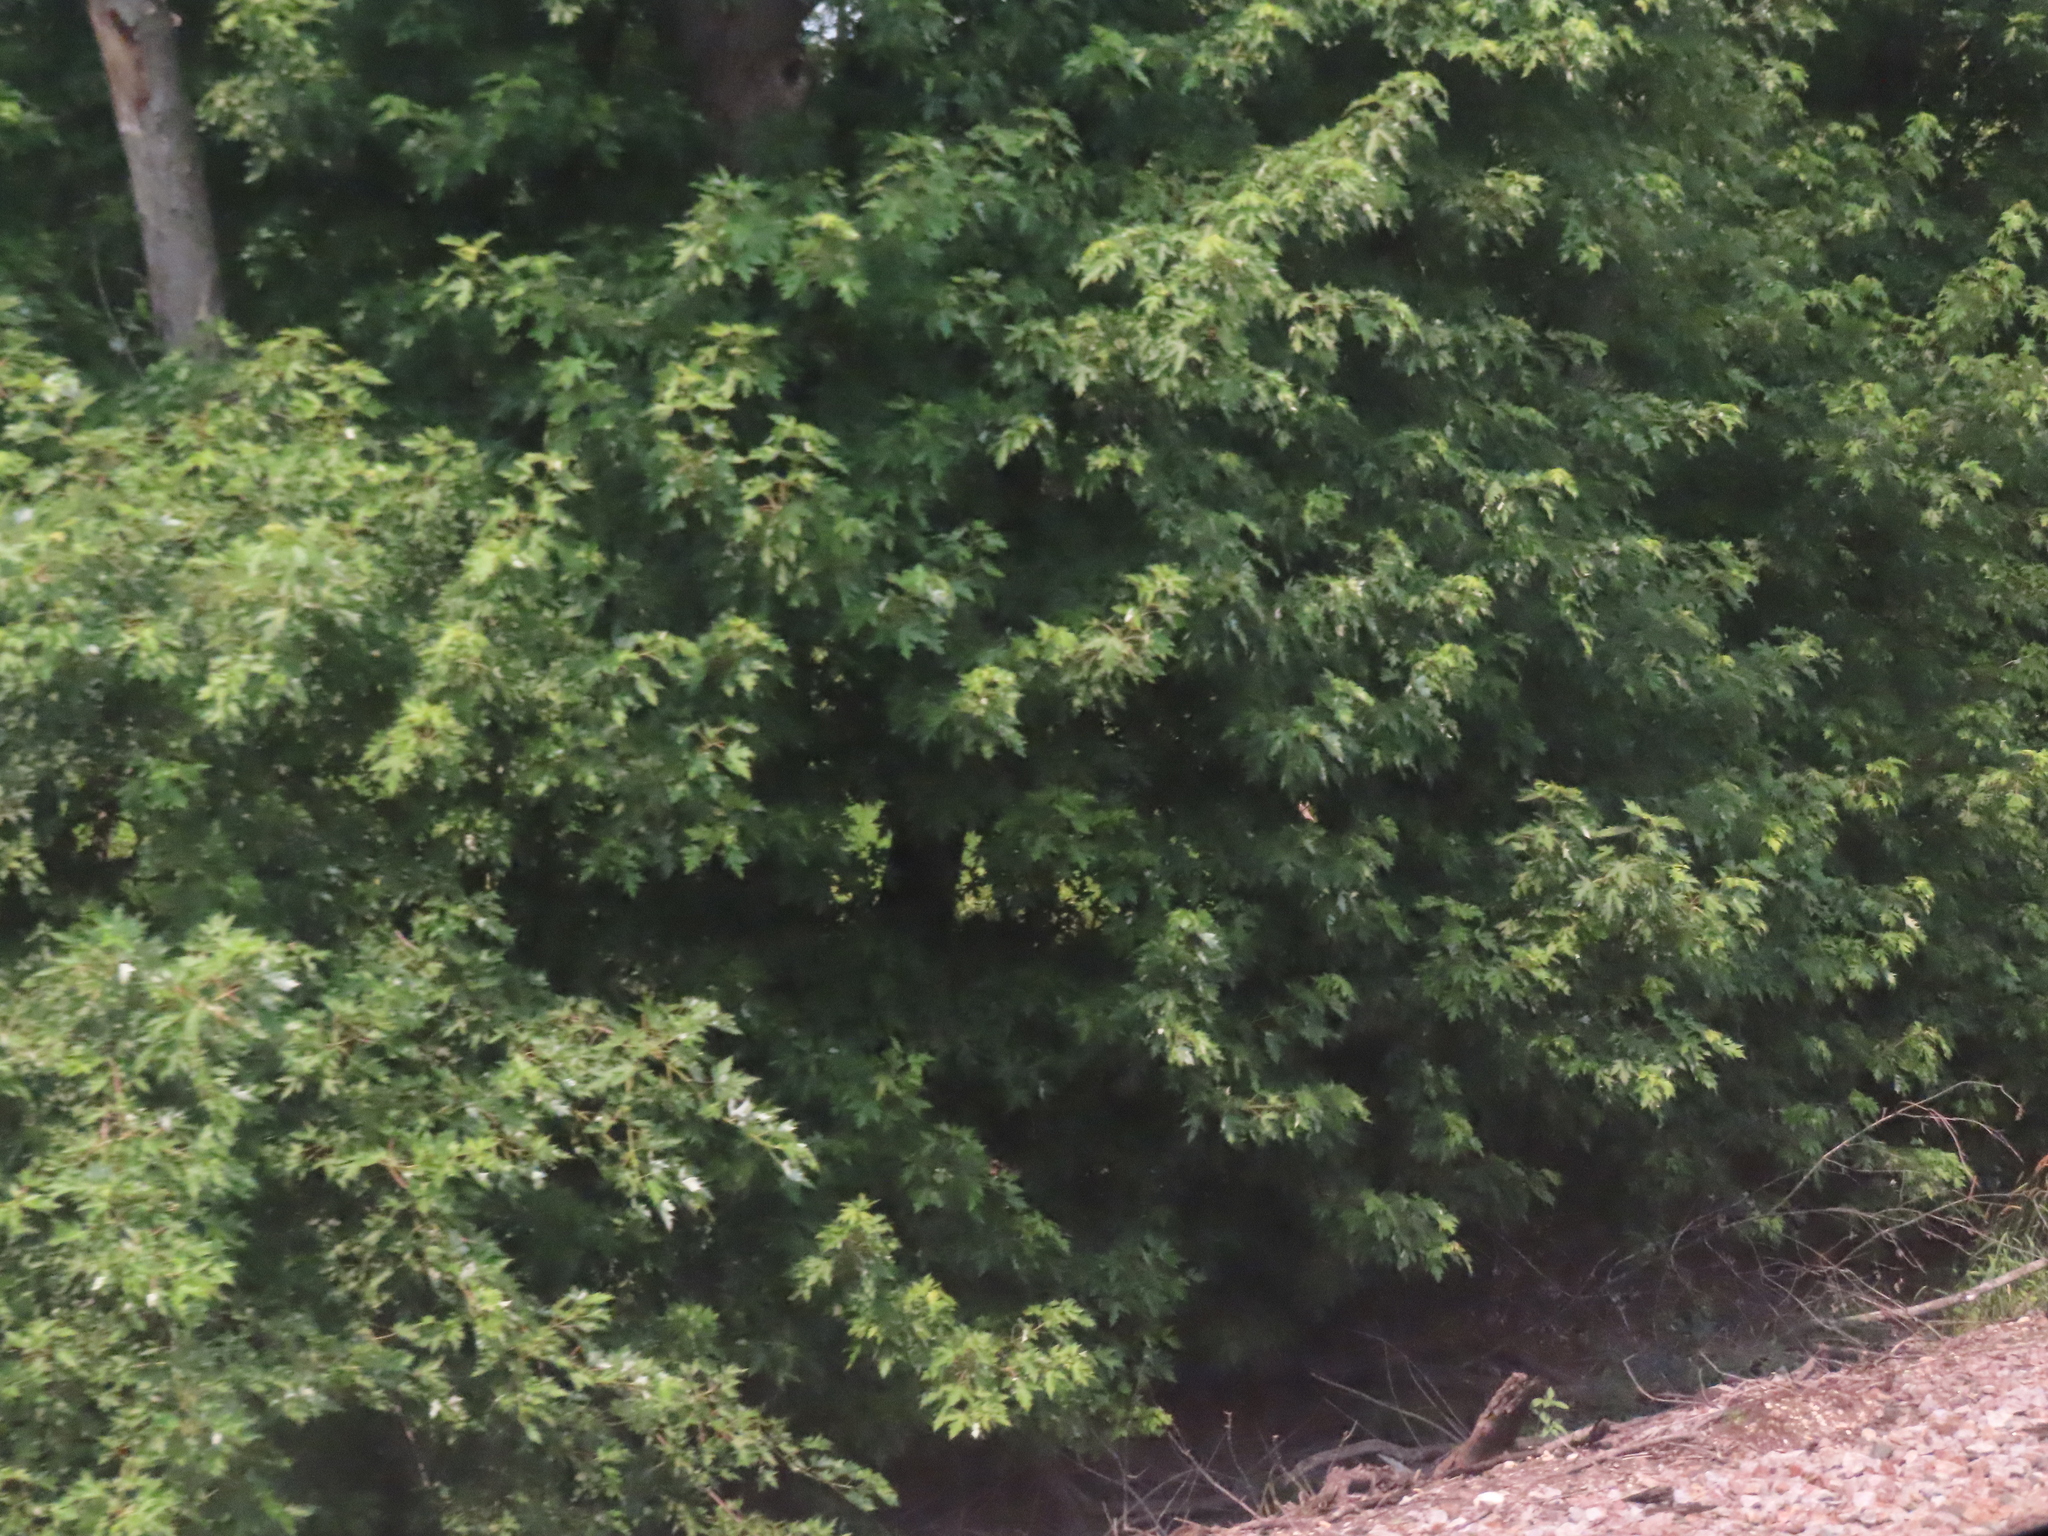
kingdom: Plantae
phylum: Tracheophyta
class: Magnoliopsida
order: Sapindales
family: Sapindaceae
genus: Acer
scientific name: Acer saccharinum
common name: Silver maple
